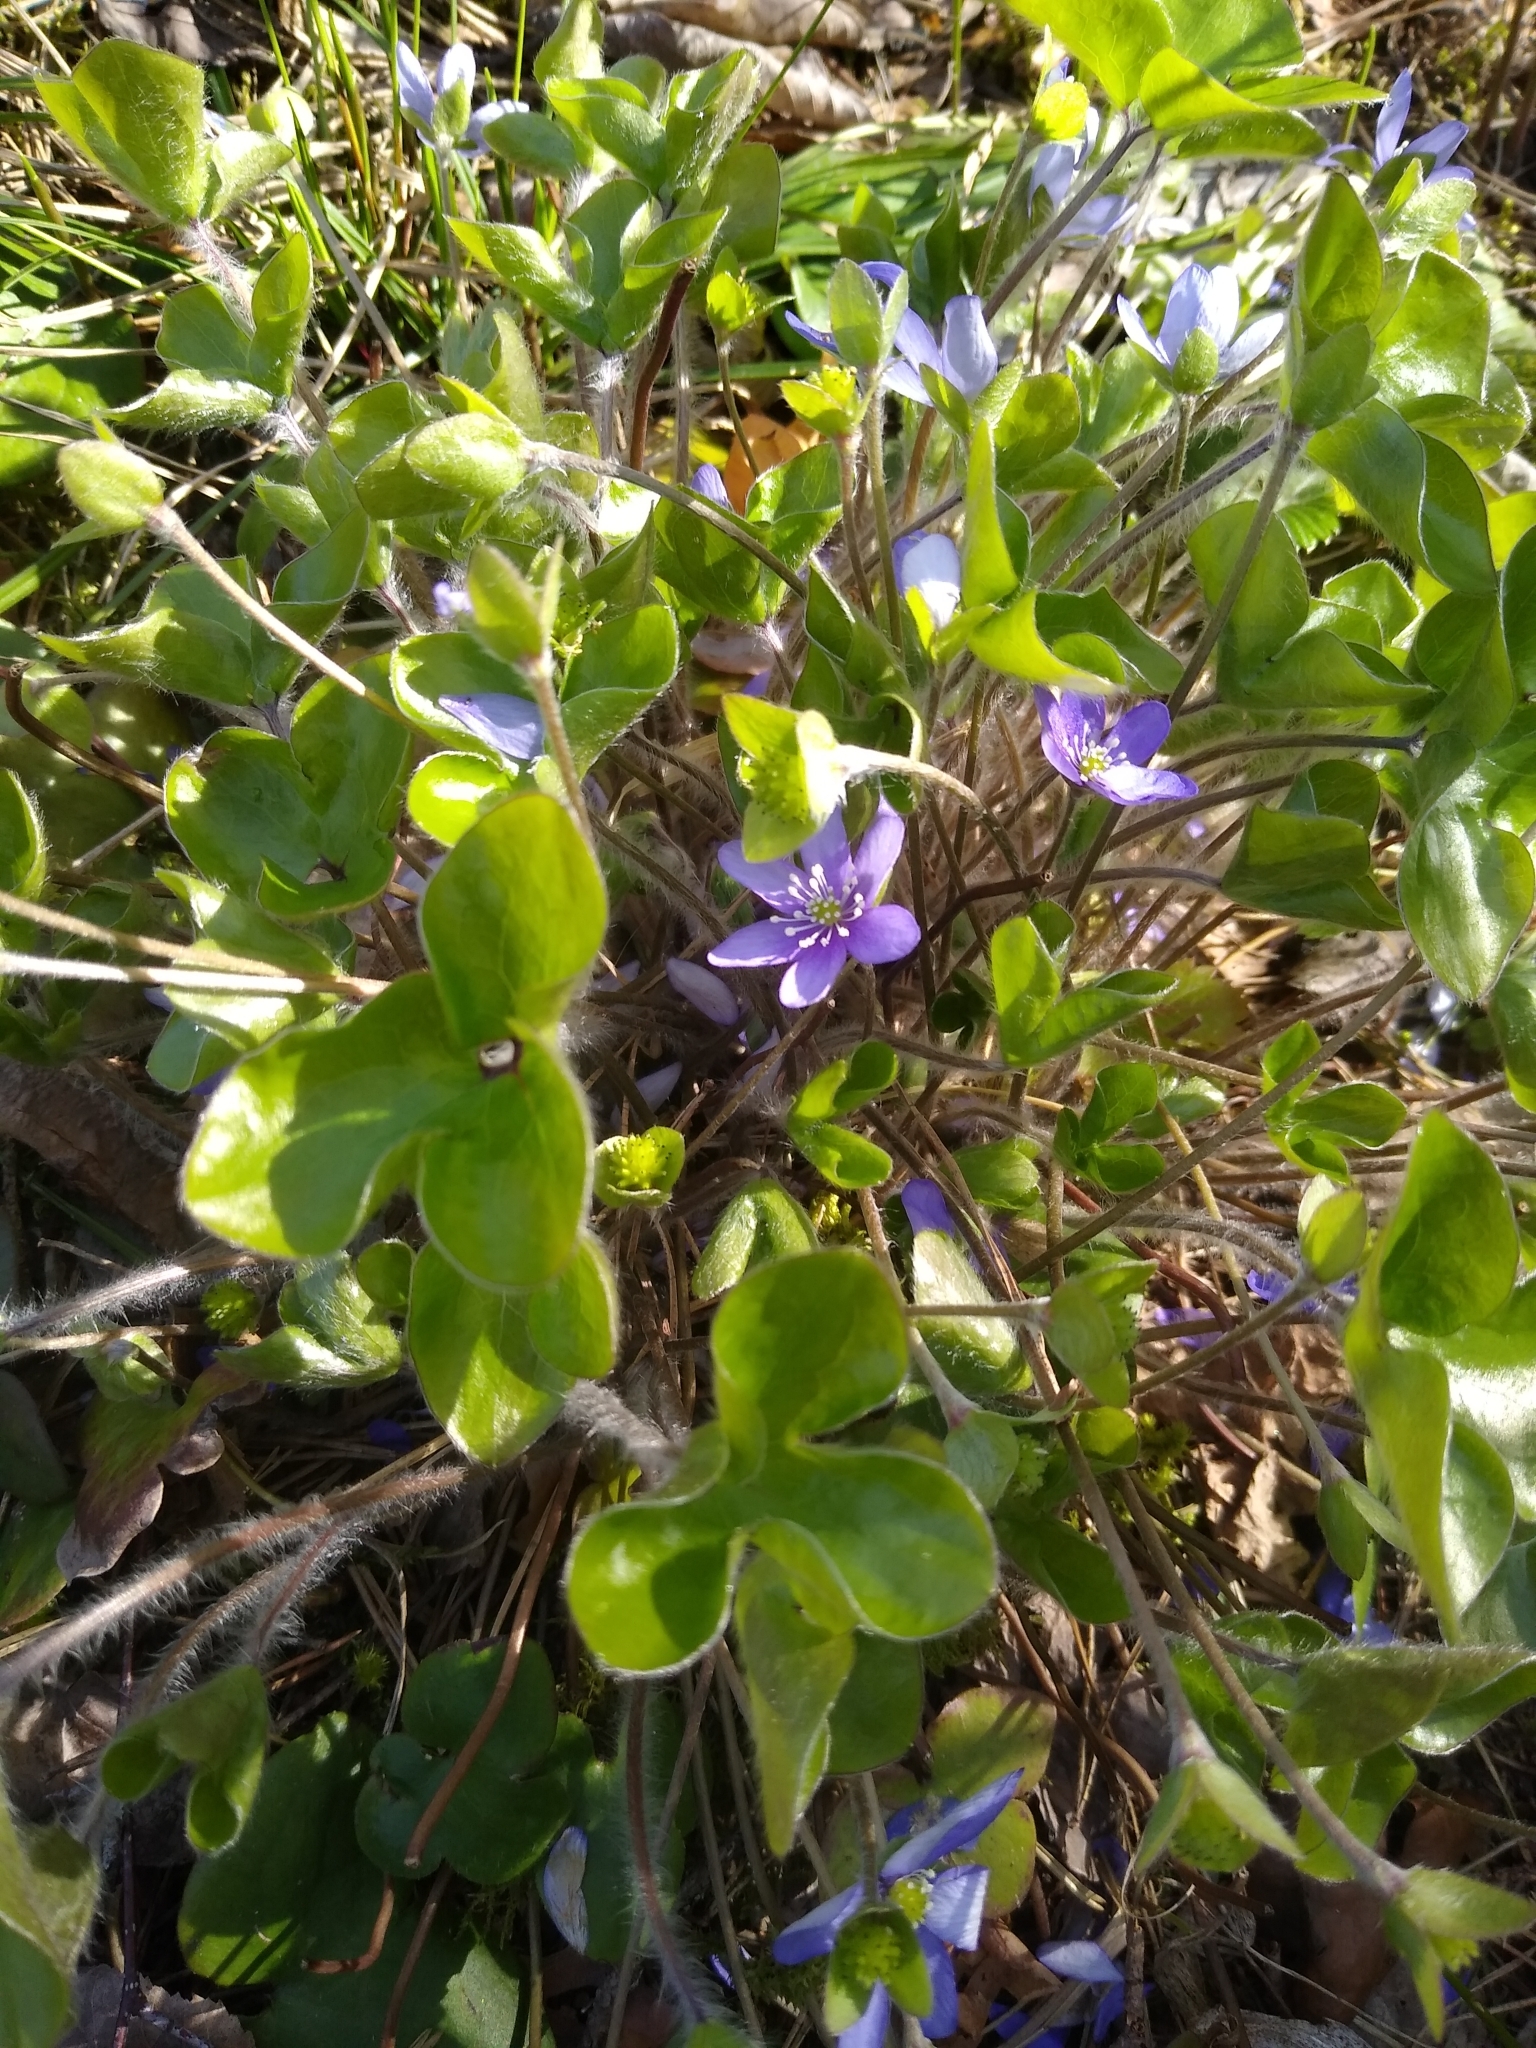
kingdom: Plantae
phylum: Tracheophyta
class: Magnoliopsida
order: Ranunculales
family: Ranunculaceae
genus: Hepatica
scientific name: Hepatica nobilis
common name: Liverleaf
